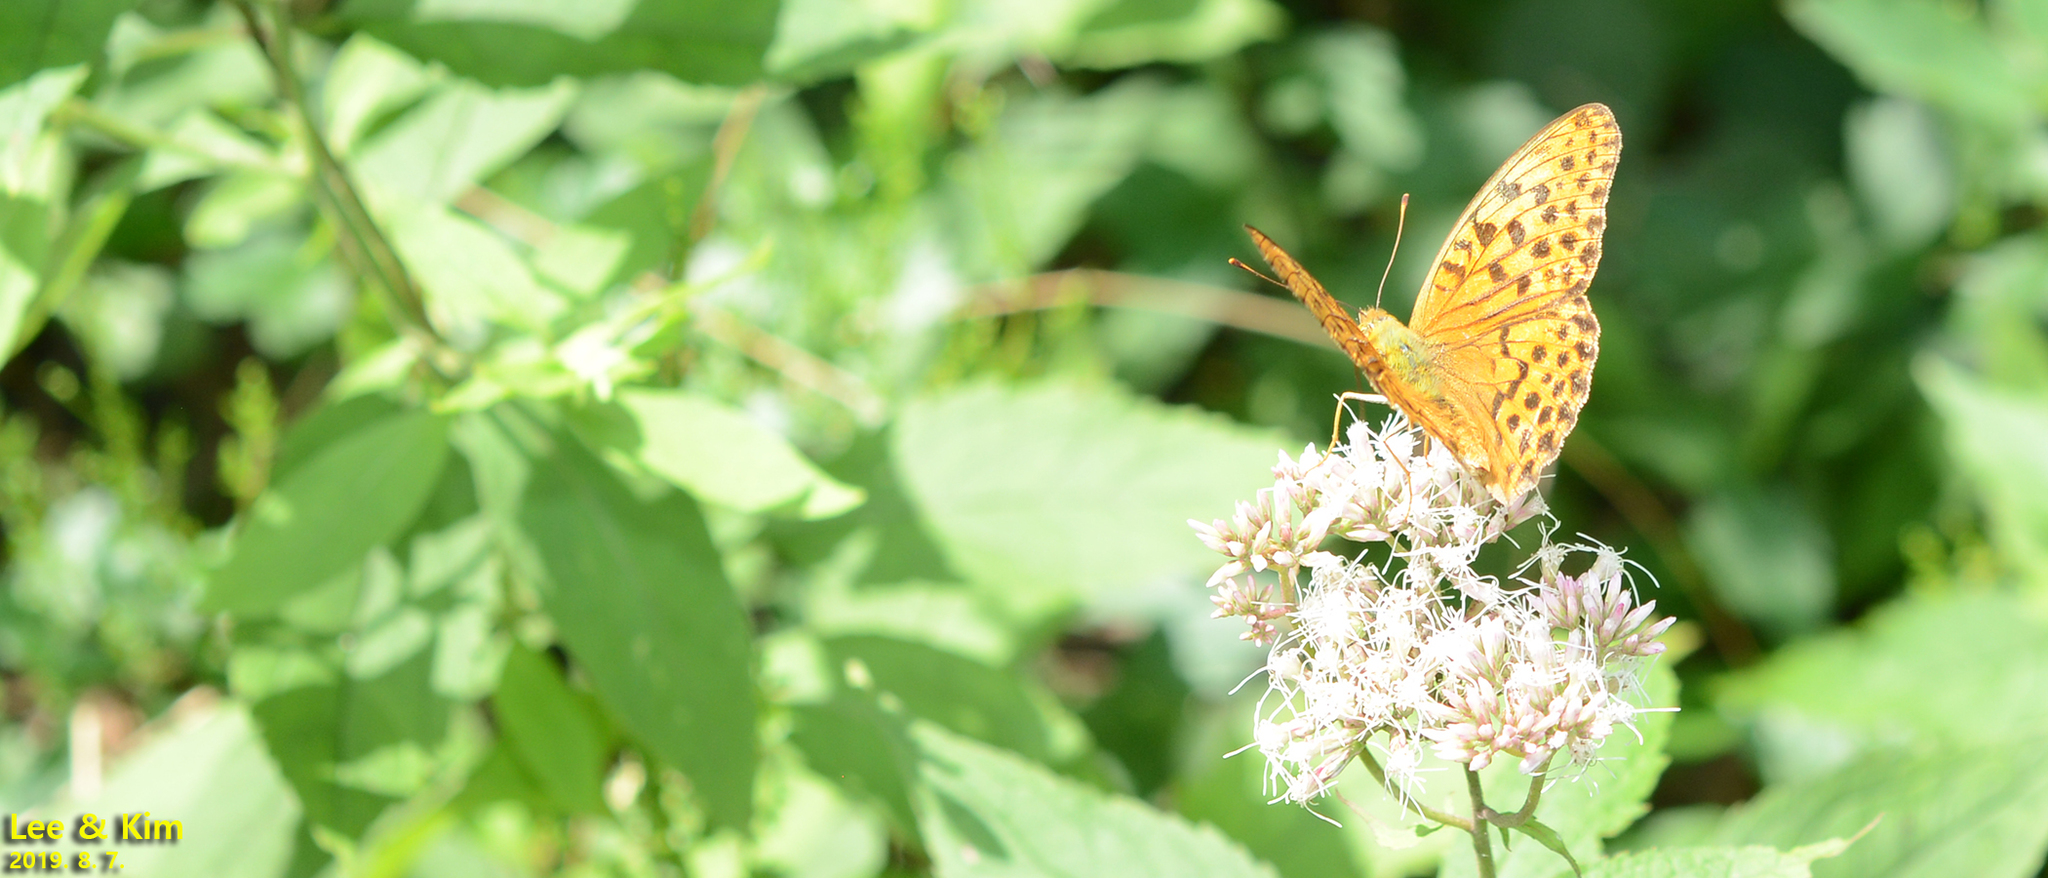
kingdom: Animalia
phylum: Arthropoda
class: Insecta
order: Lepidoptera
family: Nymphalidae
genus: Argyronome
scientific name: Argyronome ruslana
